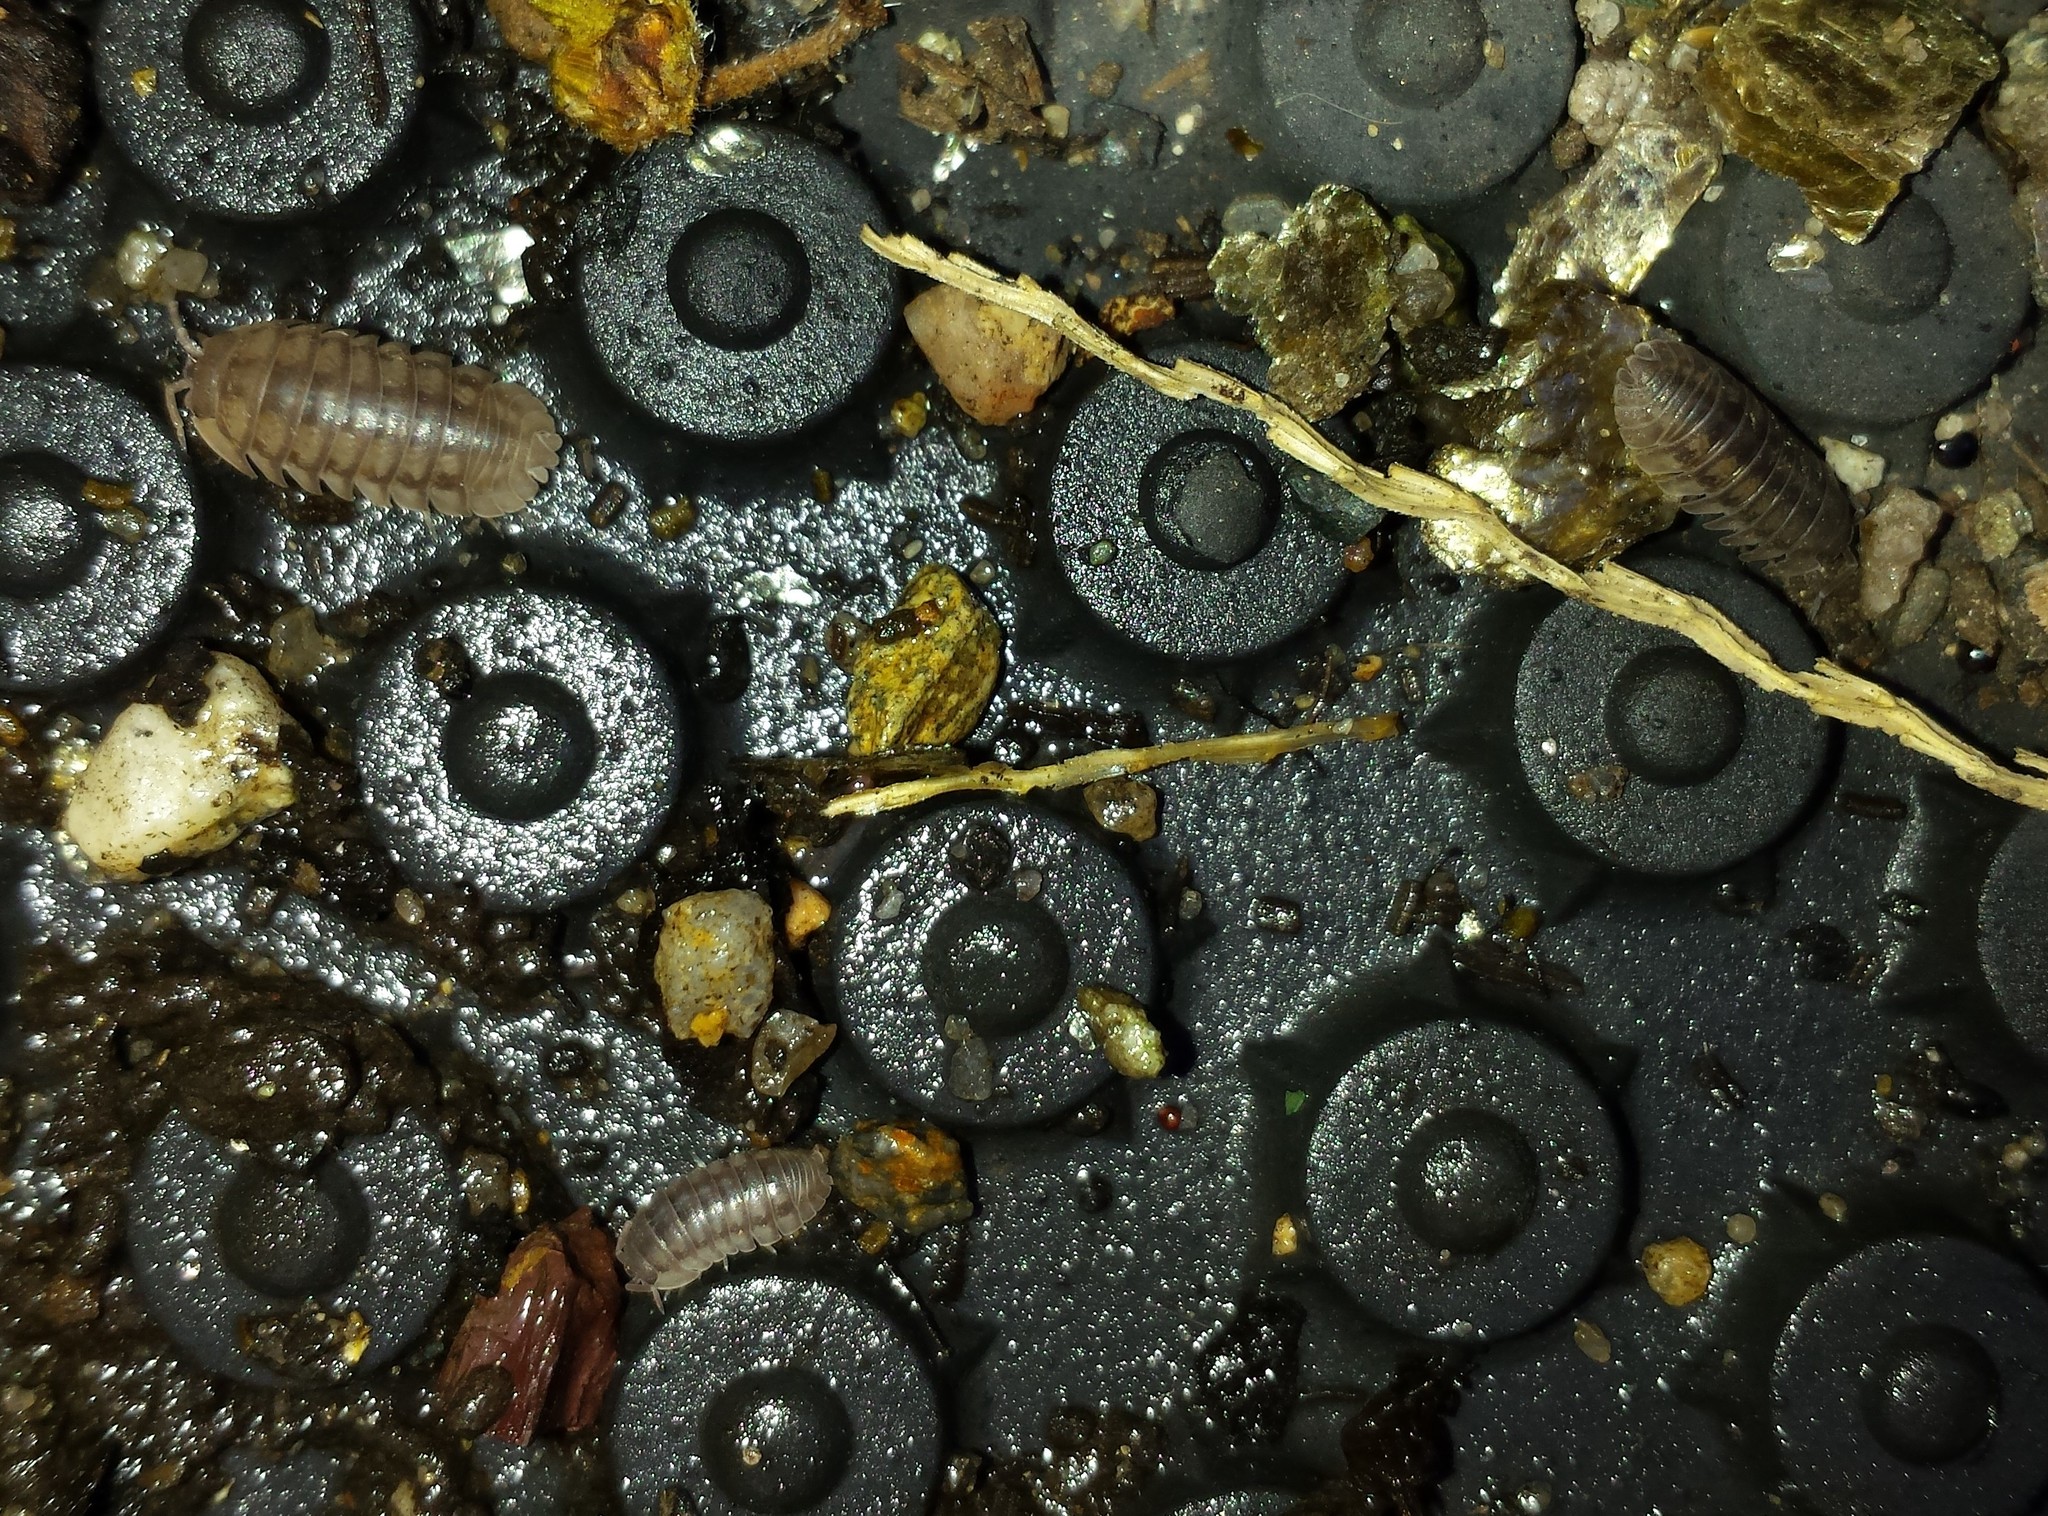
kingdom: Animalia
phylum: Arthropoda
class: Malacostraca
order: Isopoda
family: Armadillidiidae
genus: Armadillidium
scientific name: Armadillidium nasatum
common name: Isopod
